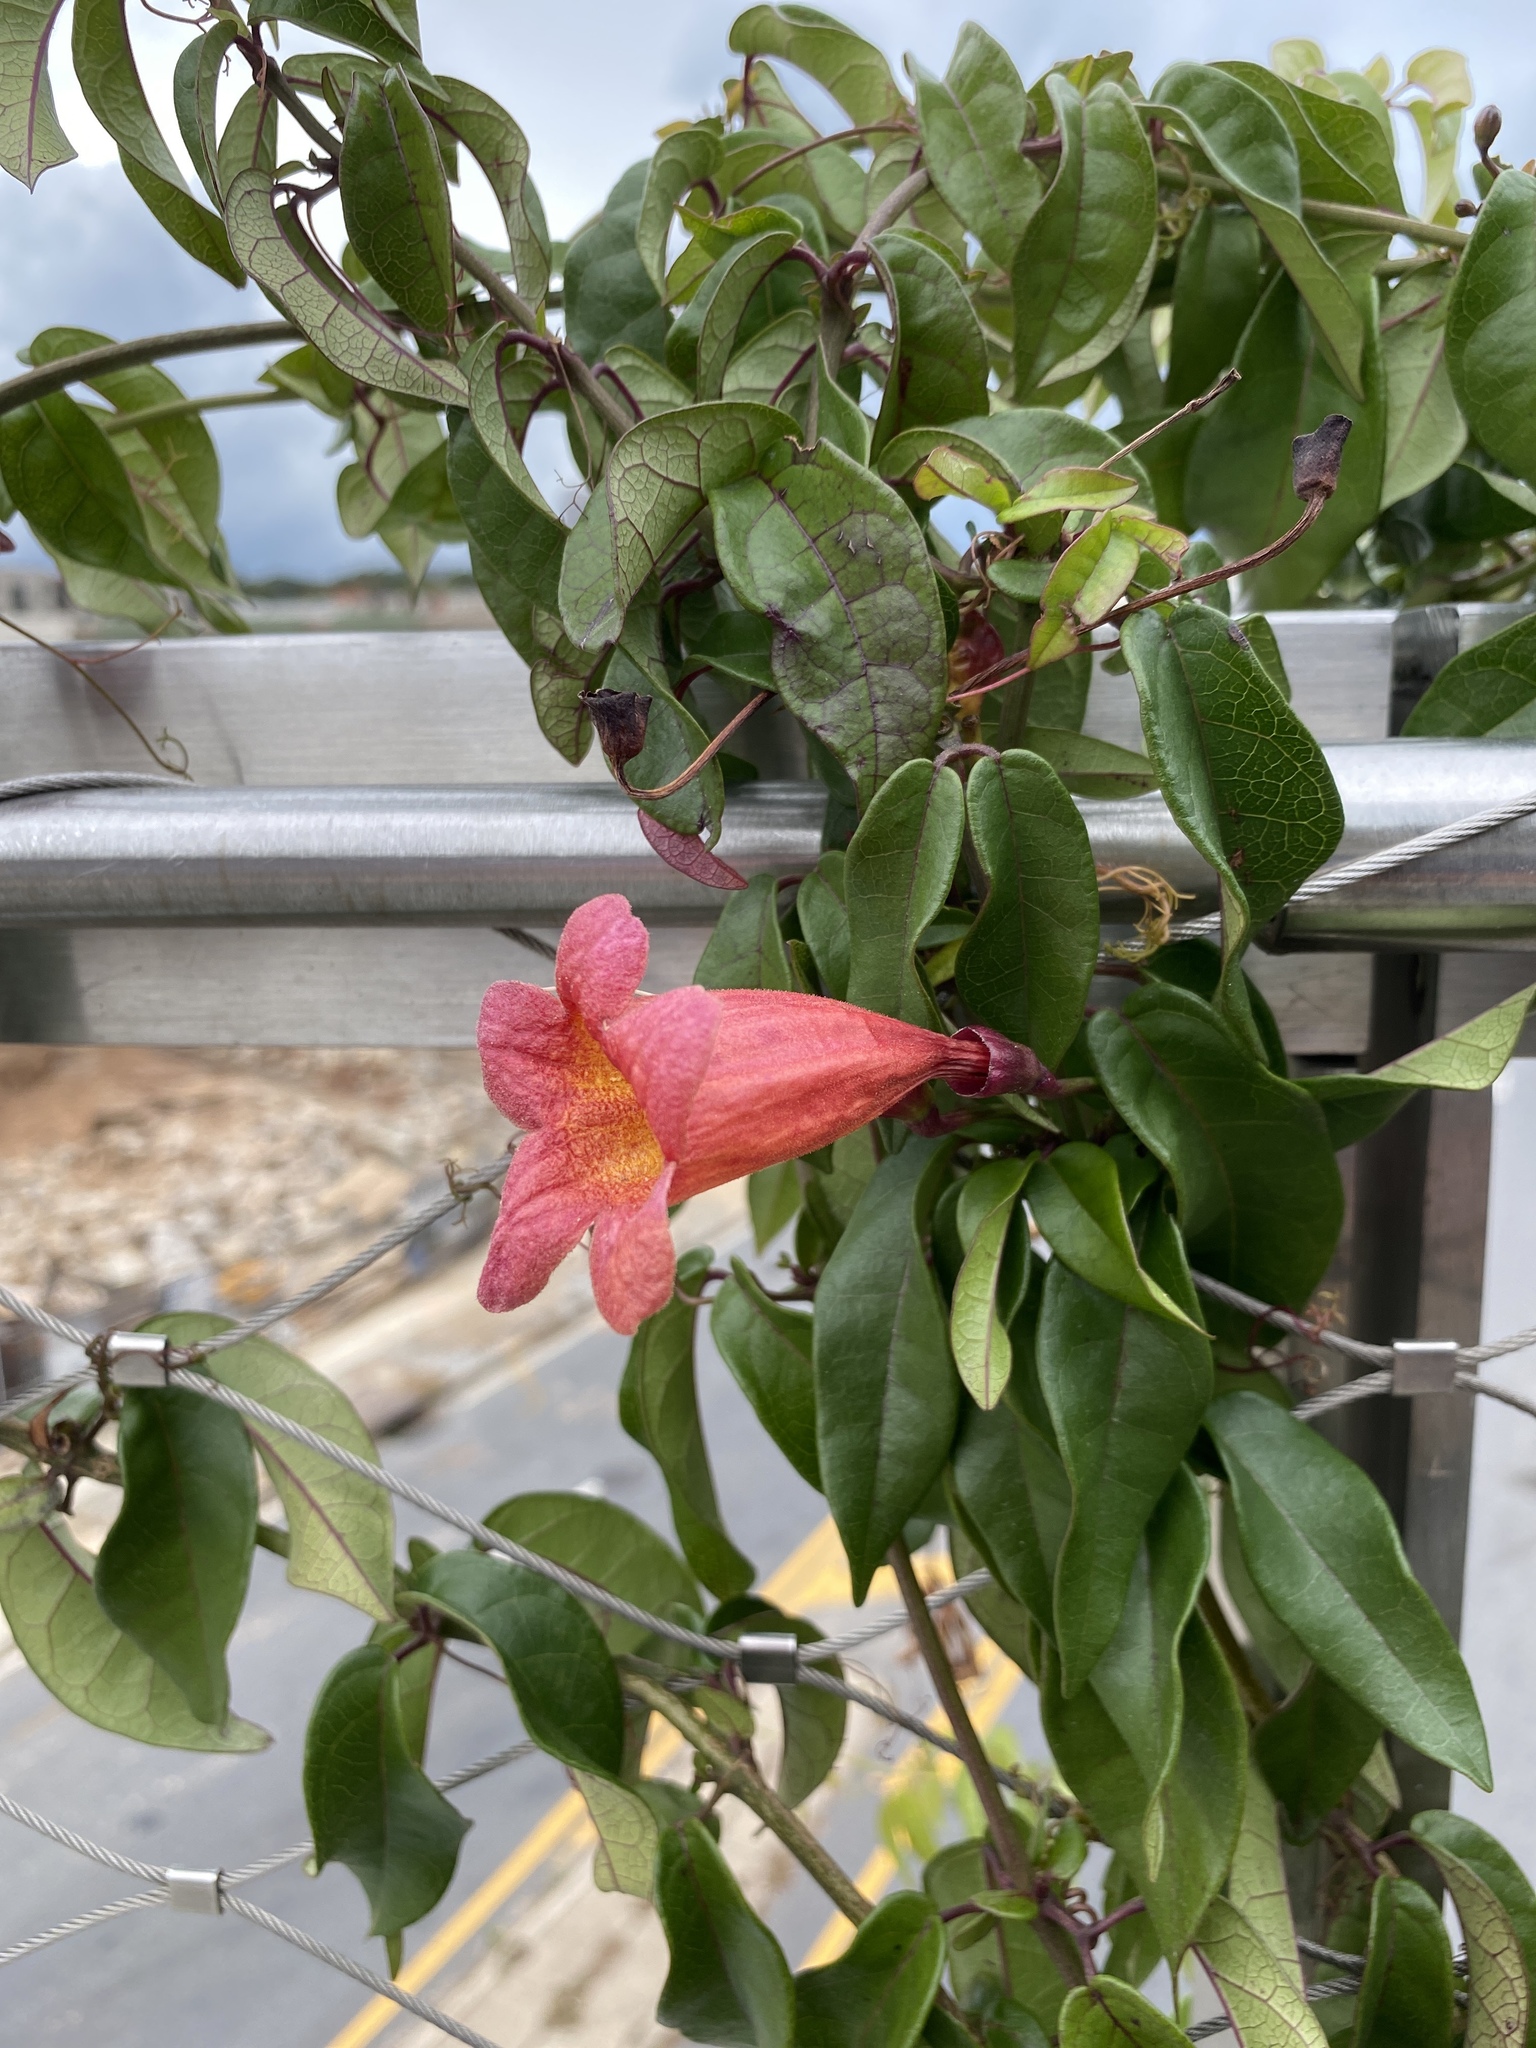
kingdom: Plantae
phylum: Tracheophyta
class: Magnoliopsida
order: Lamiales
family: Bignoniaceae
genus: Bignonia
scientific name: Bignonia capreolata
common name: Crossvine
